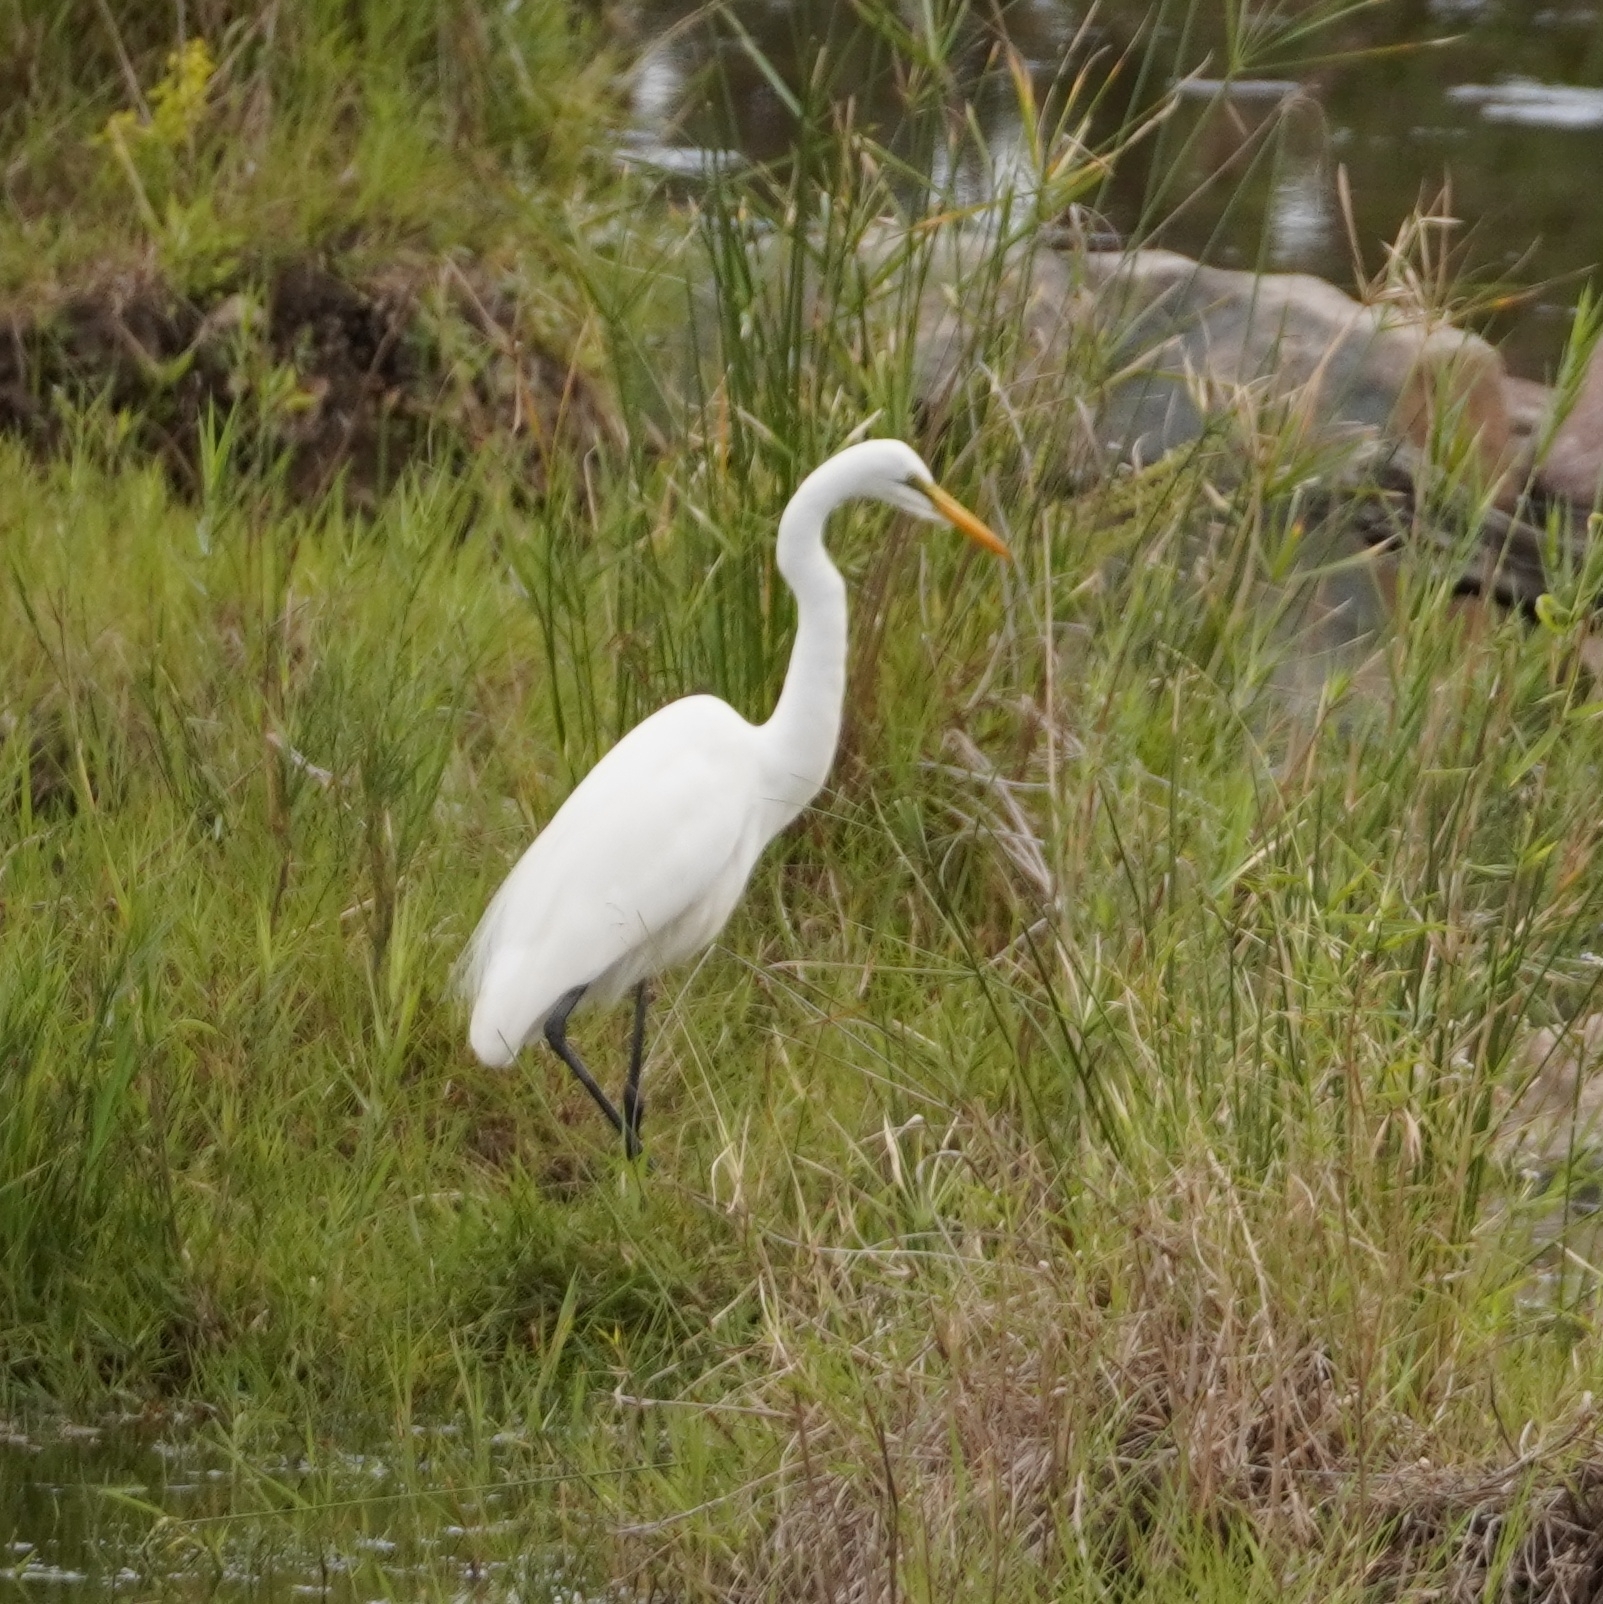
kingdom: Animalia
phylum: Chordata
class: Aves
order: Pelecaniformes
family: Ardeidae
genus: Ardea
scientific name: Ardea alba
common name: Great egret
